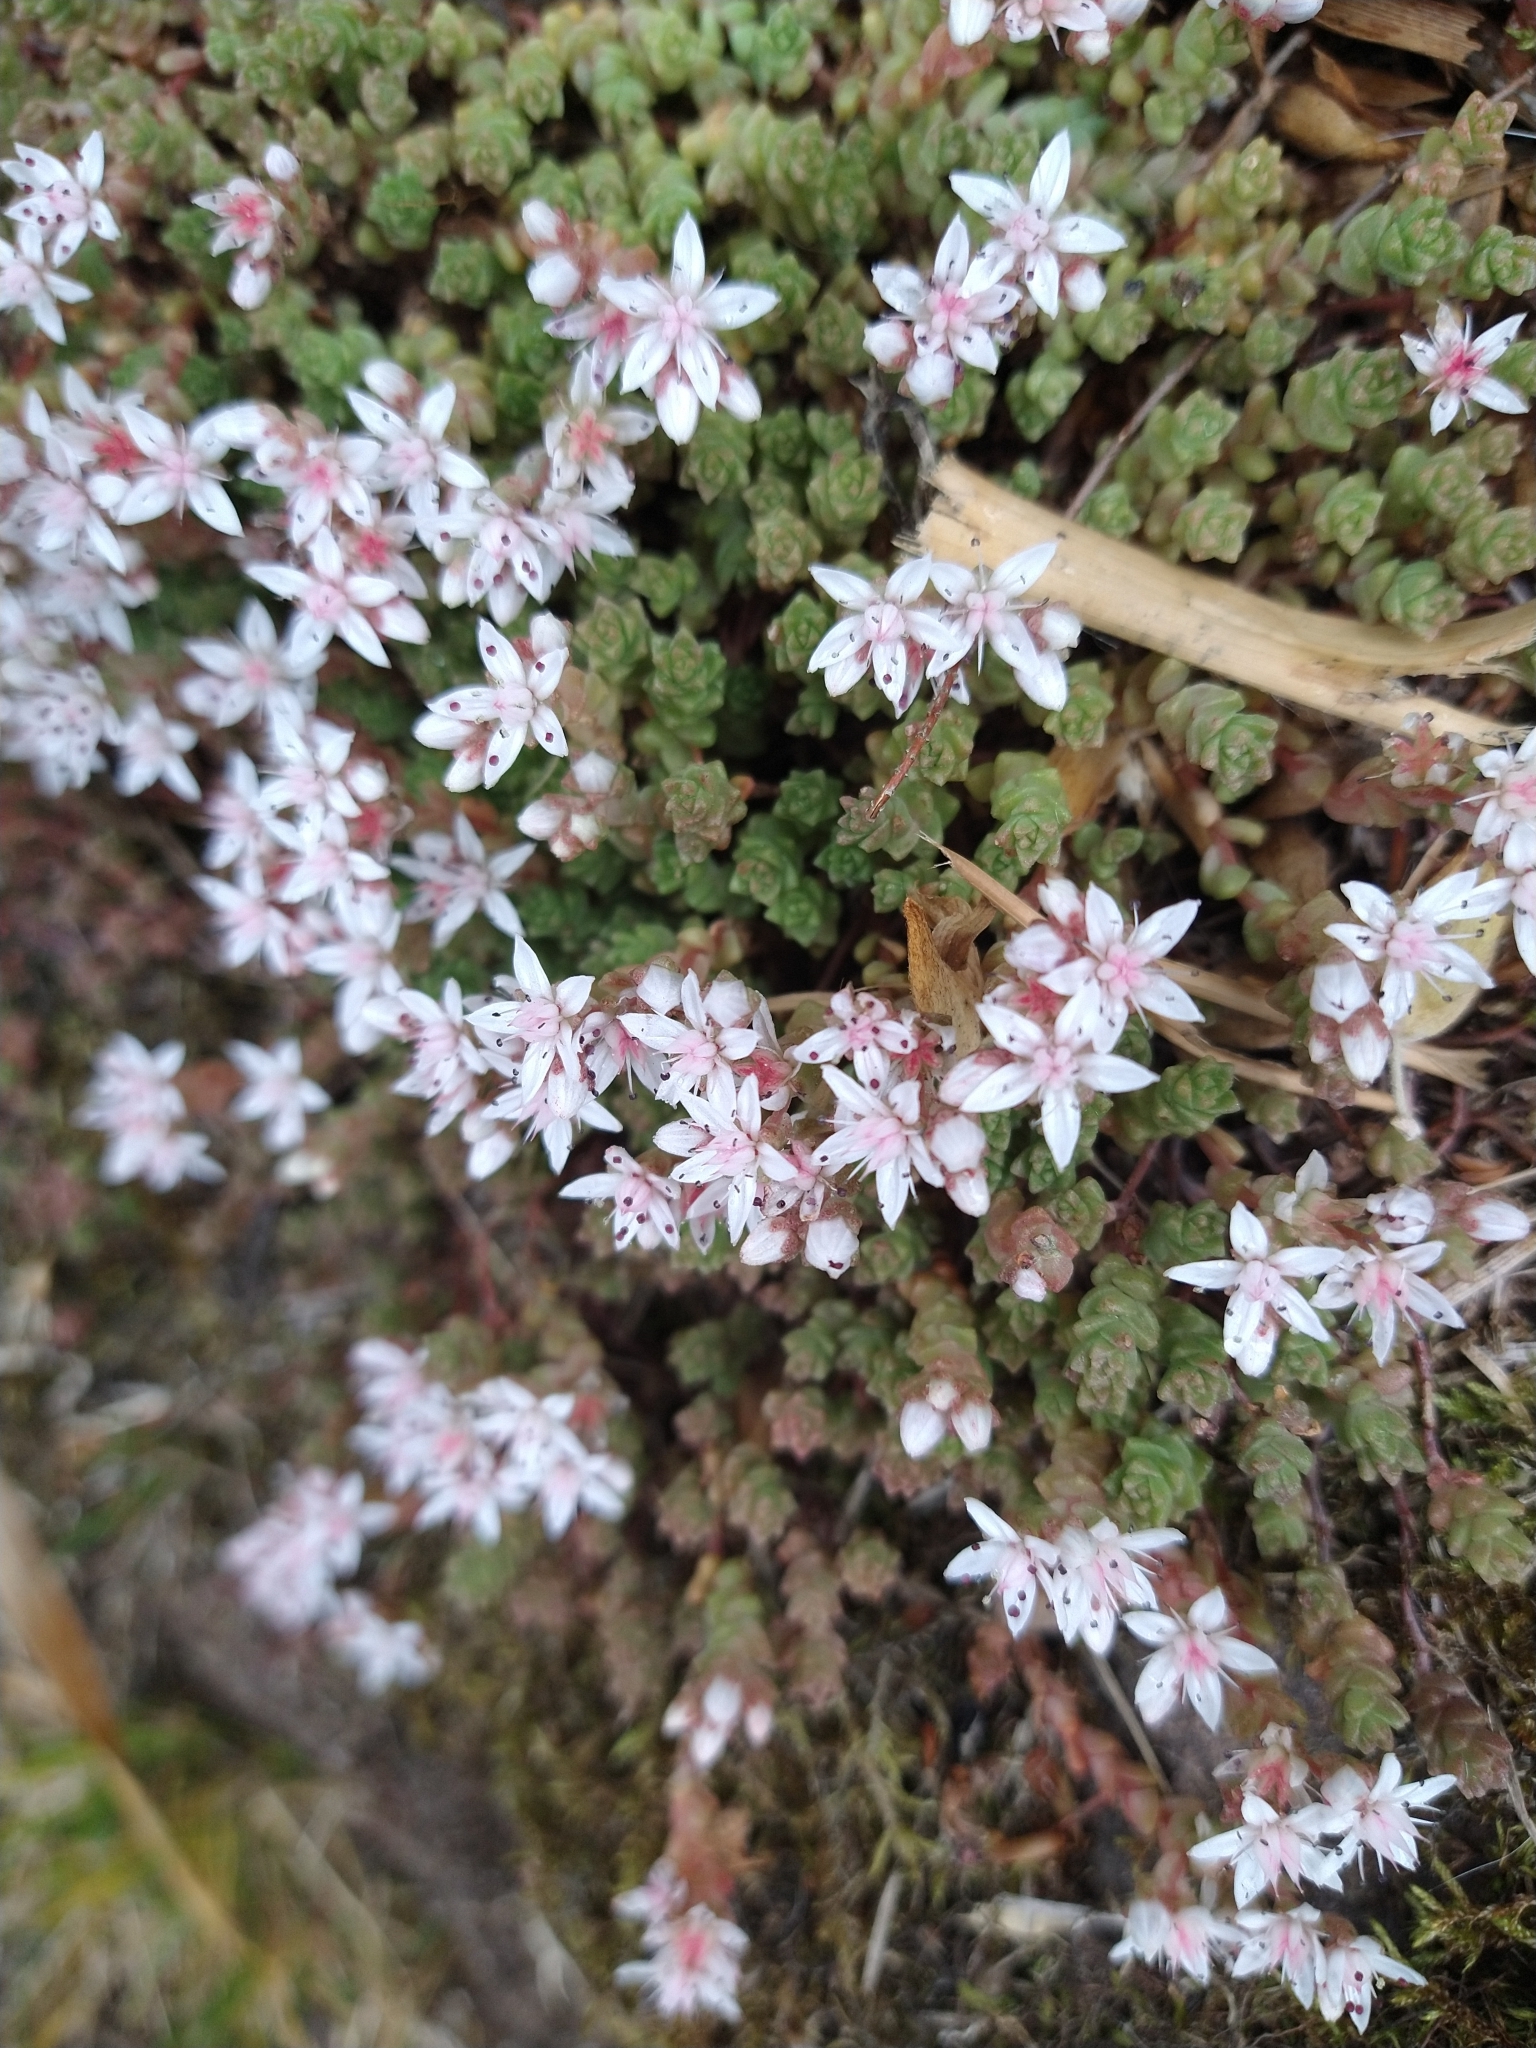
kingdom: Plantae
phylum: Tracheophyta
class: Magnoliopsida
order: Saxifragales
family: Crassulaceae
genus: Sedum
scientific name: Sedum anglicum
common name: English stonecrop
